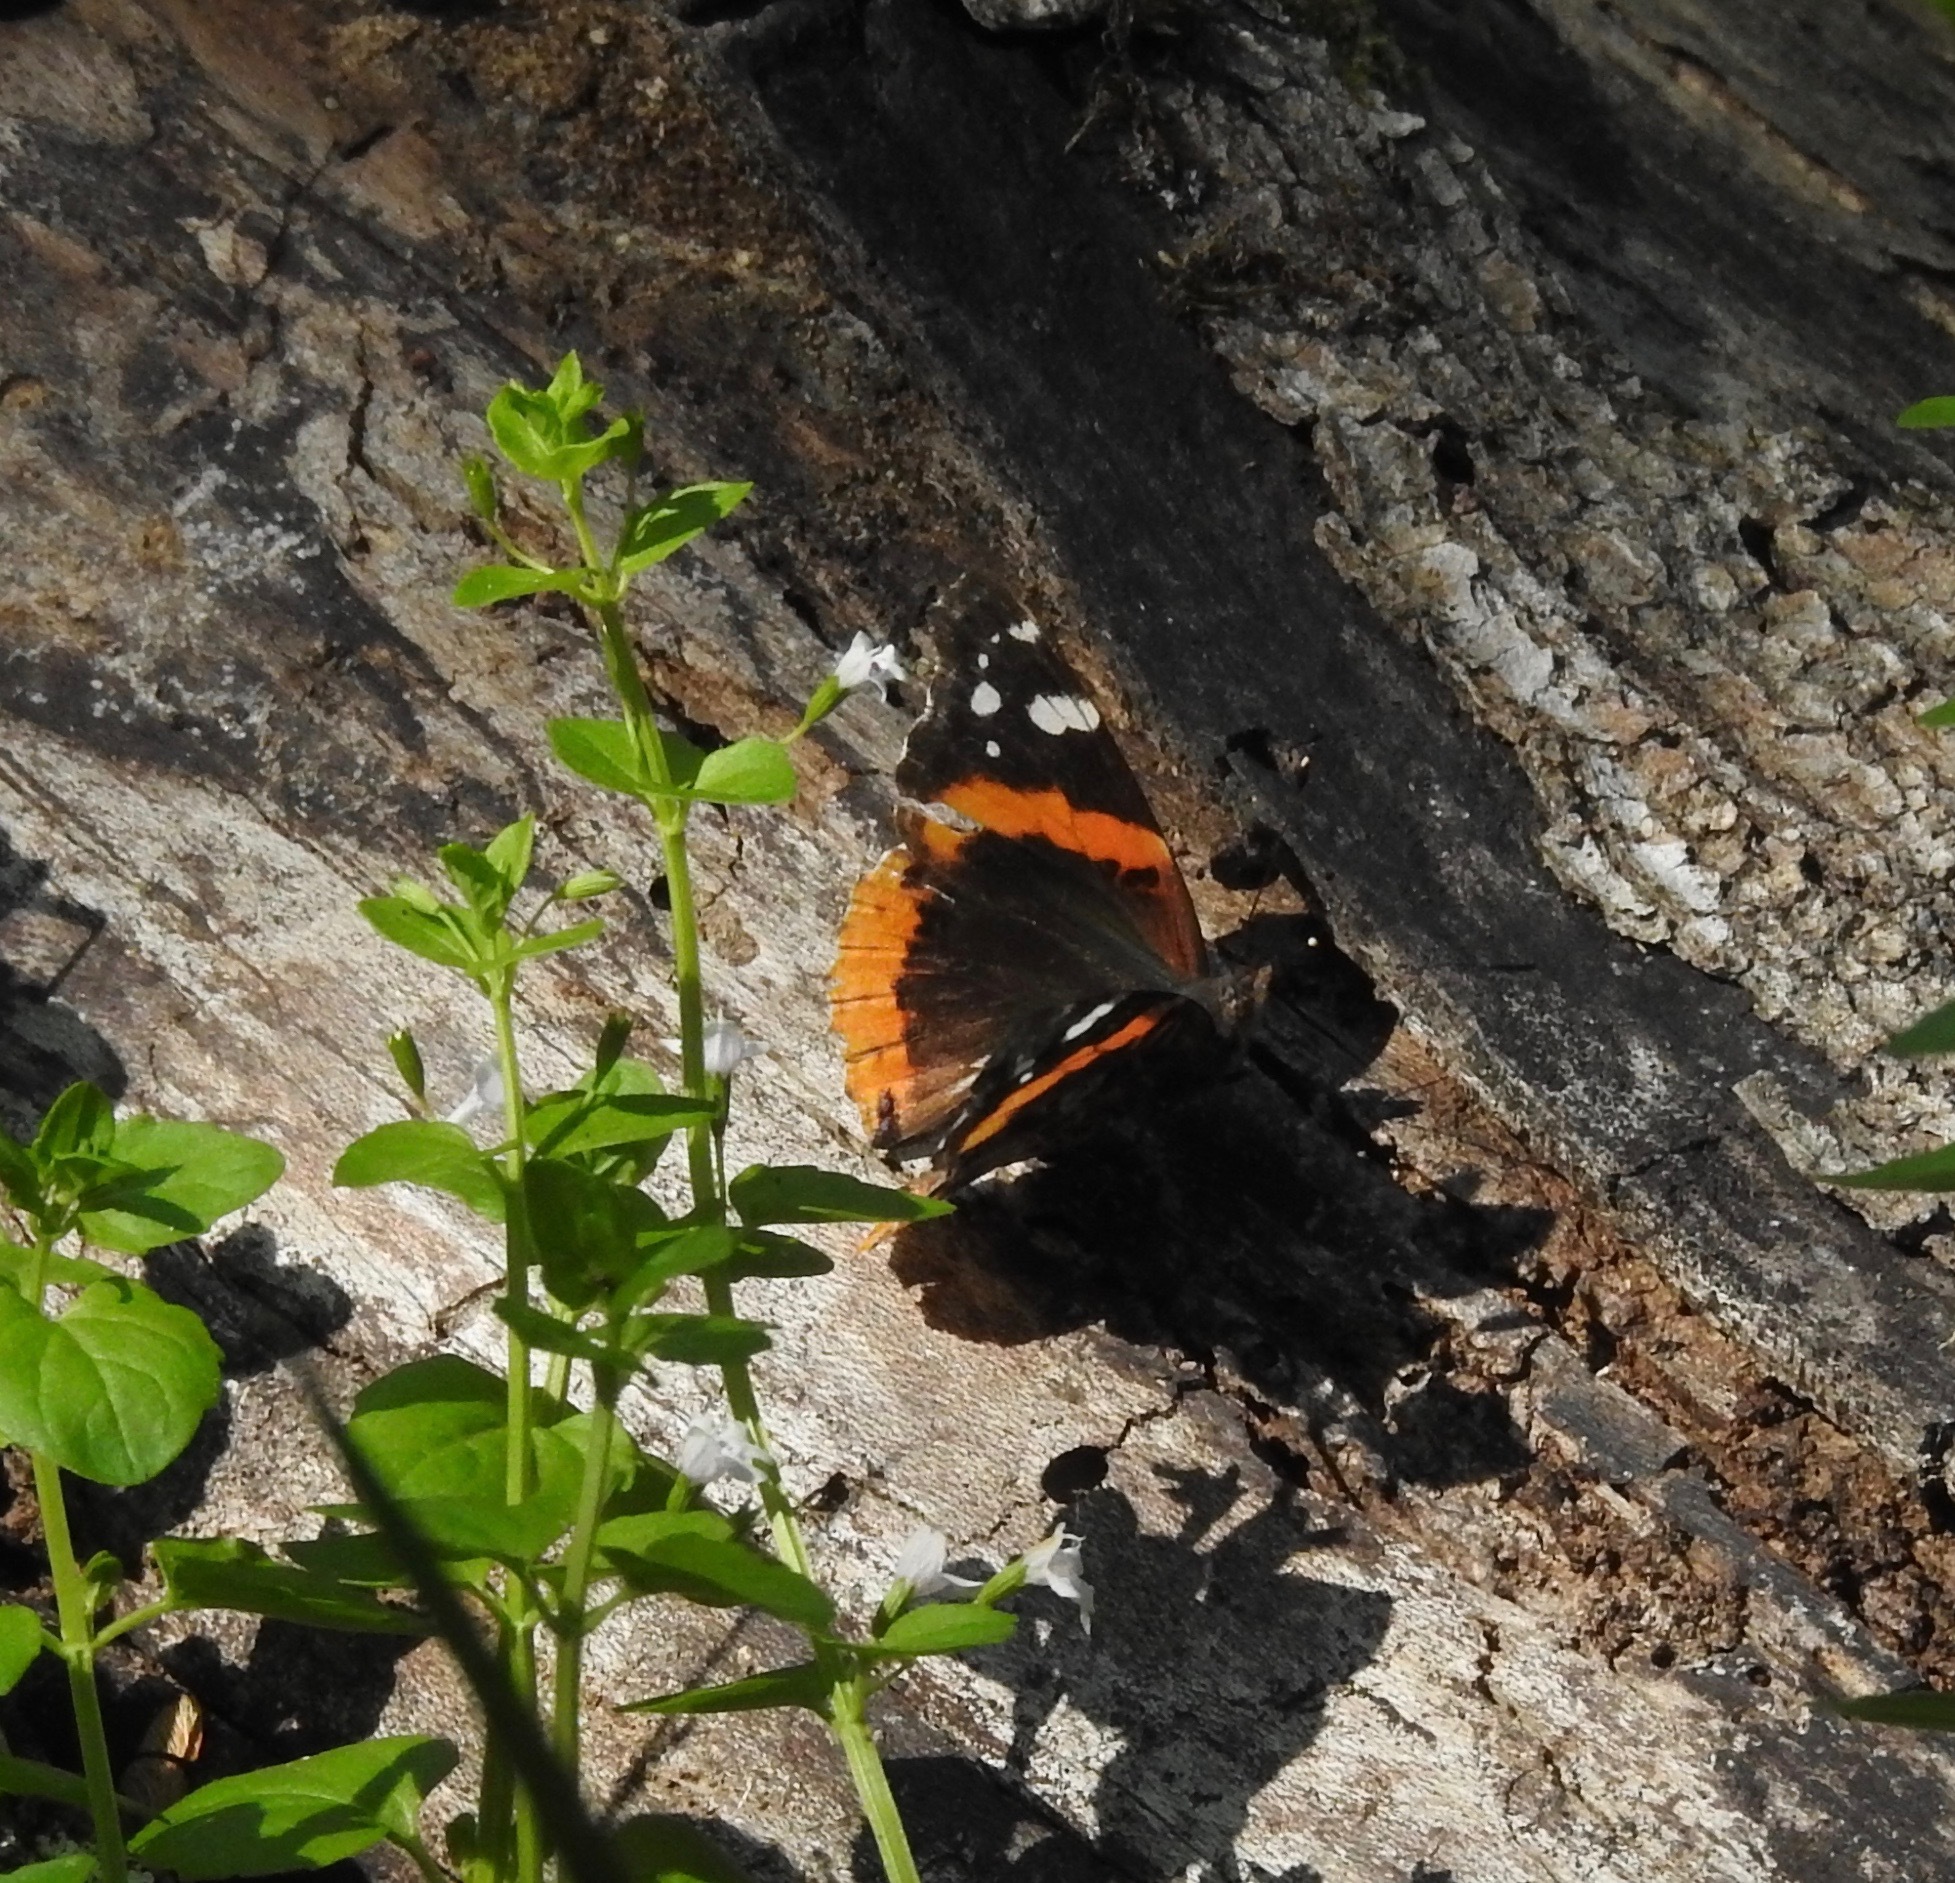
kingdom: Animalia
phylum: Arthropoda
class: Insecta
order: Lepidoptera
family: Nymphalidae
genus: Vanessa
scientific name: Vanessa atalanta
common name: Red admiral
